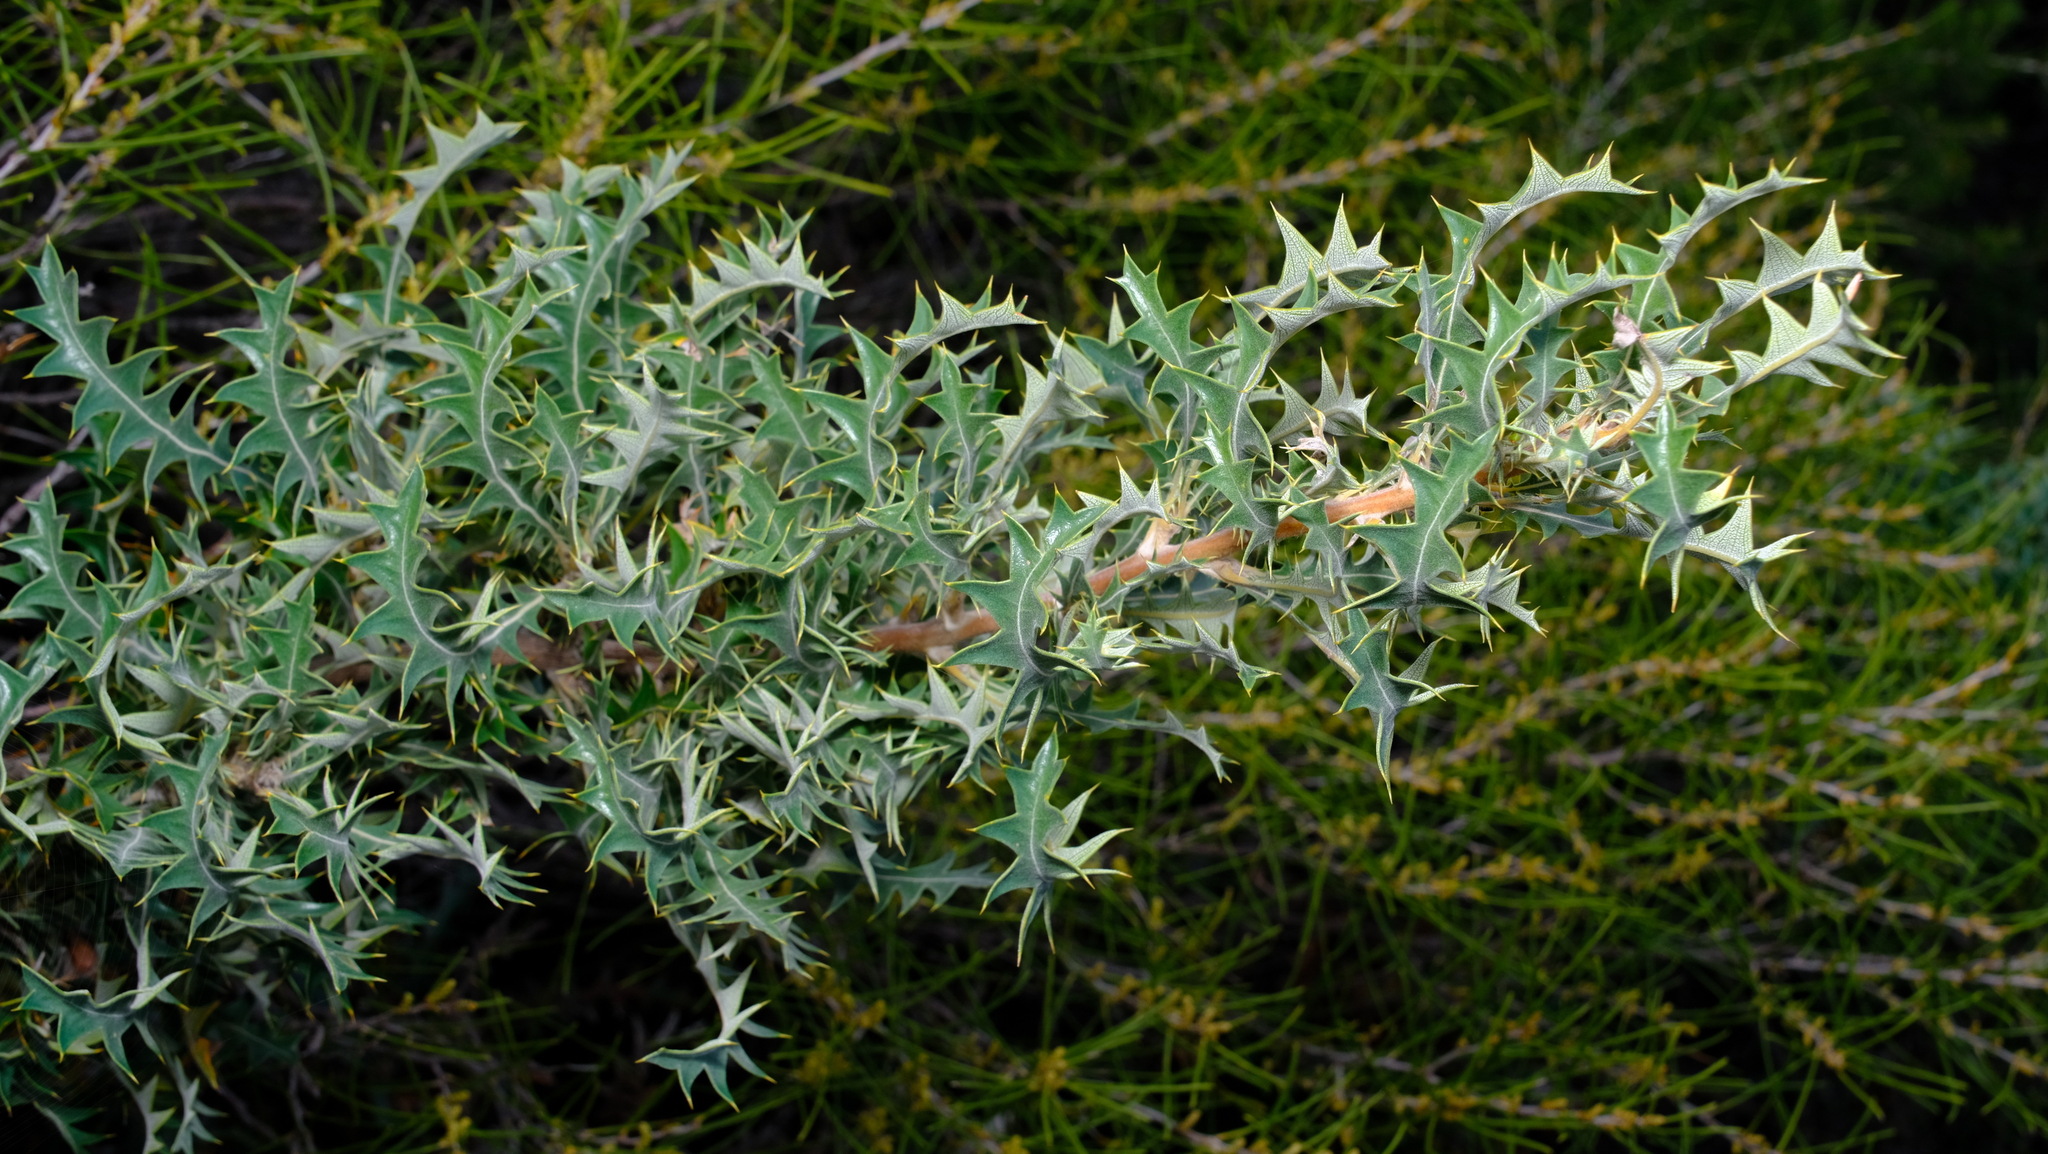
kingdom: Plantae
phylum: Tracheophyta
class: Magnoliopsida
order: Proteales
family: Proteaceae
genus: Banksia
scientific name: Banksia armata
